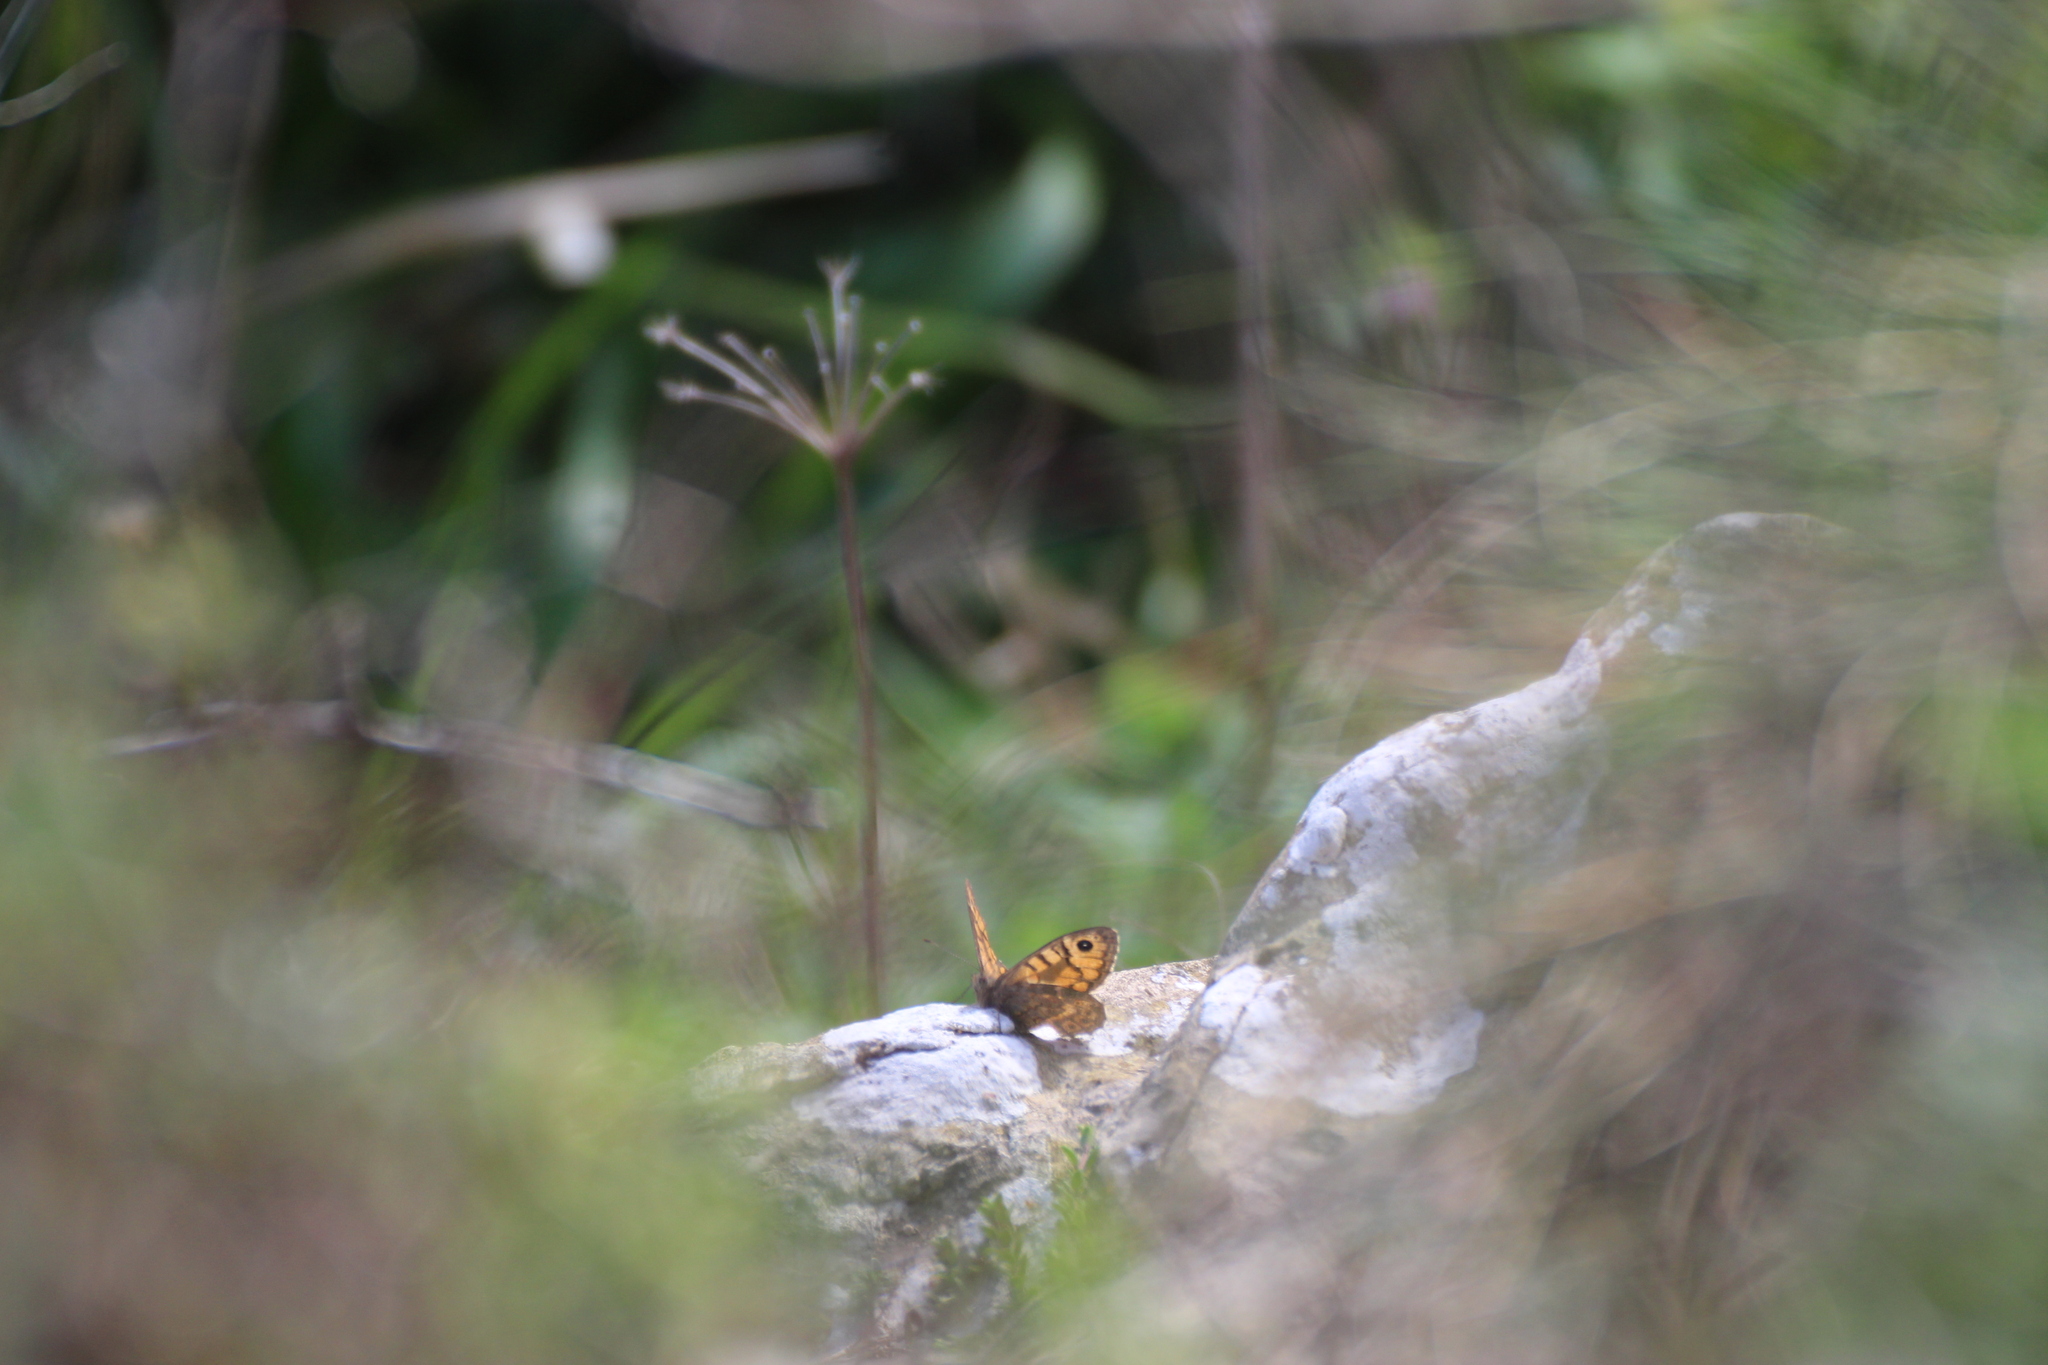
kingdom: Animalia
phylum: Arthropoda
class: Insecta
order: Lepidoptera
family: Nymphalidae
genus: Pararge
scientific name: Pararge Lasiommata megera
